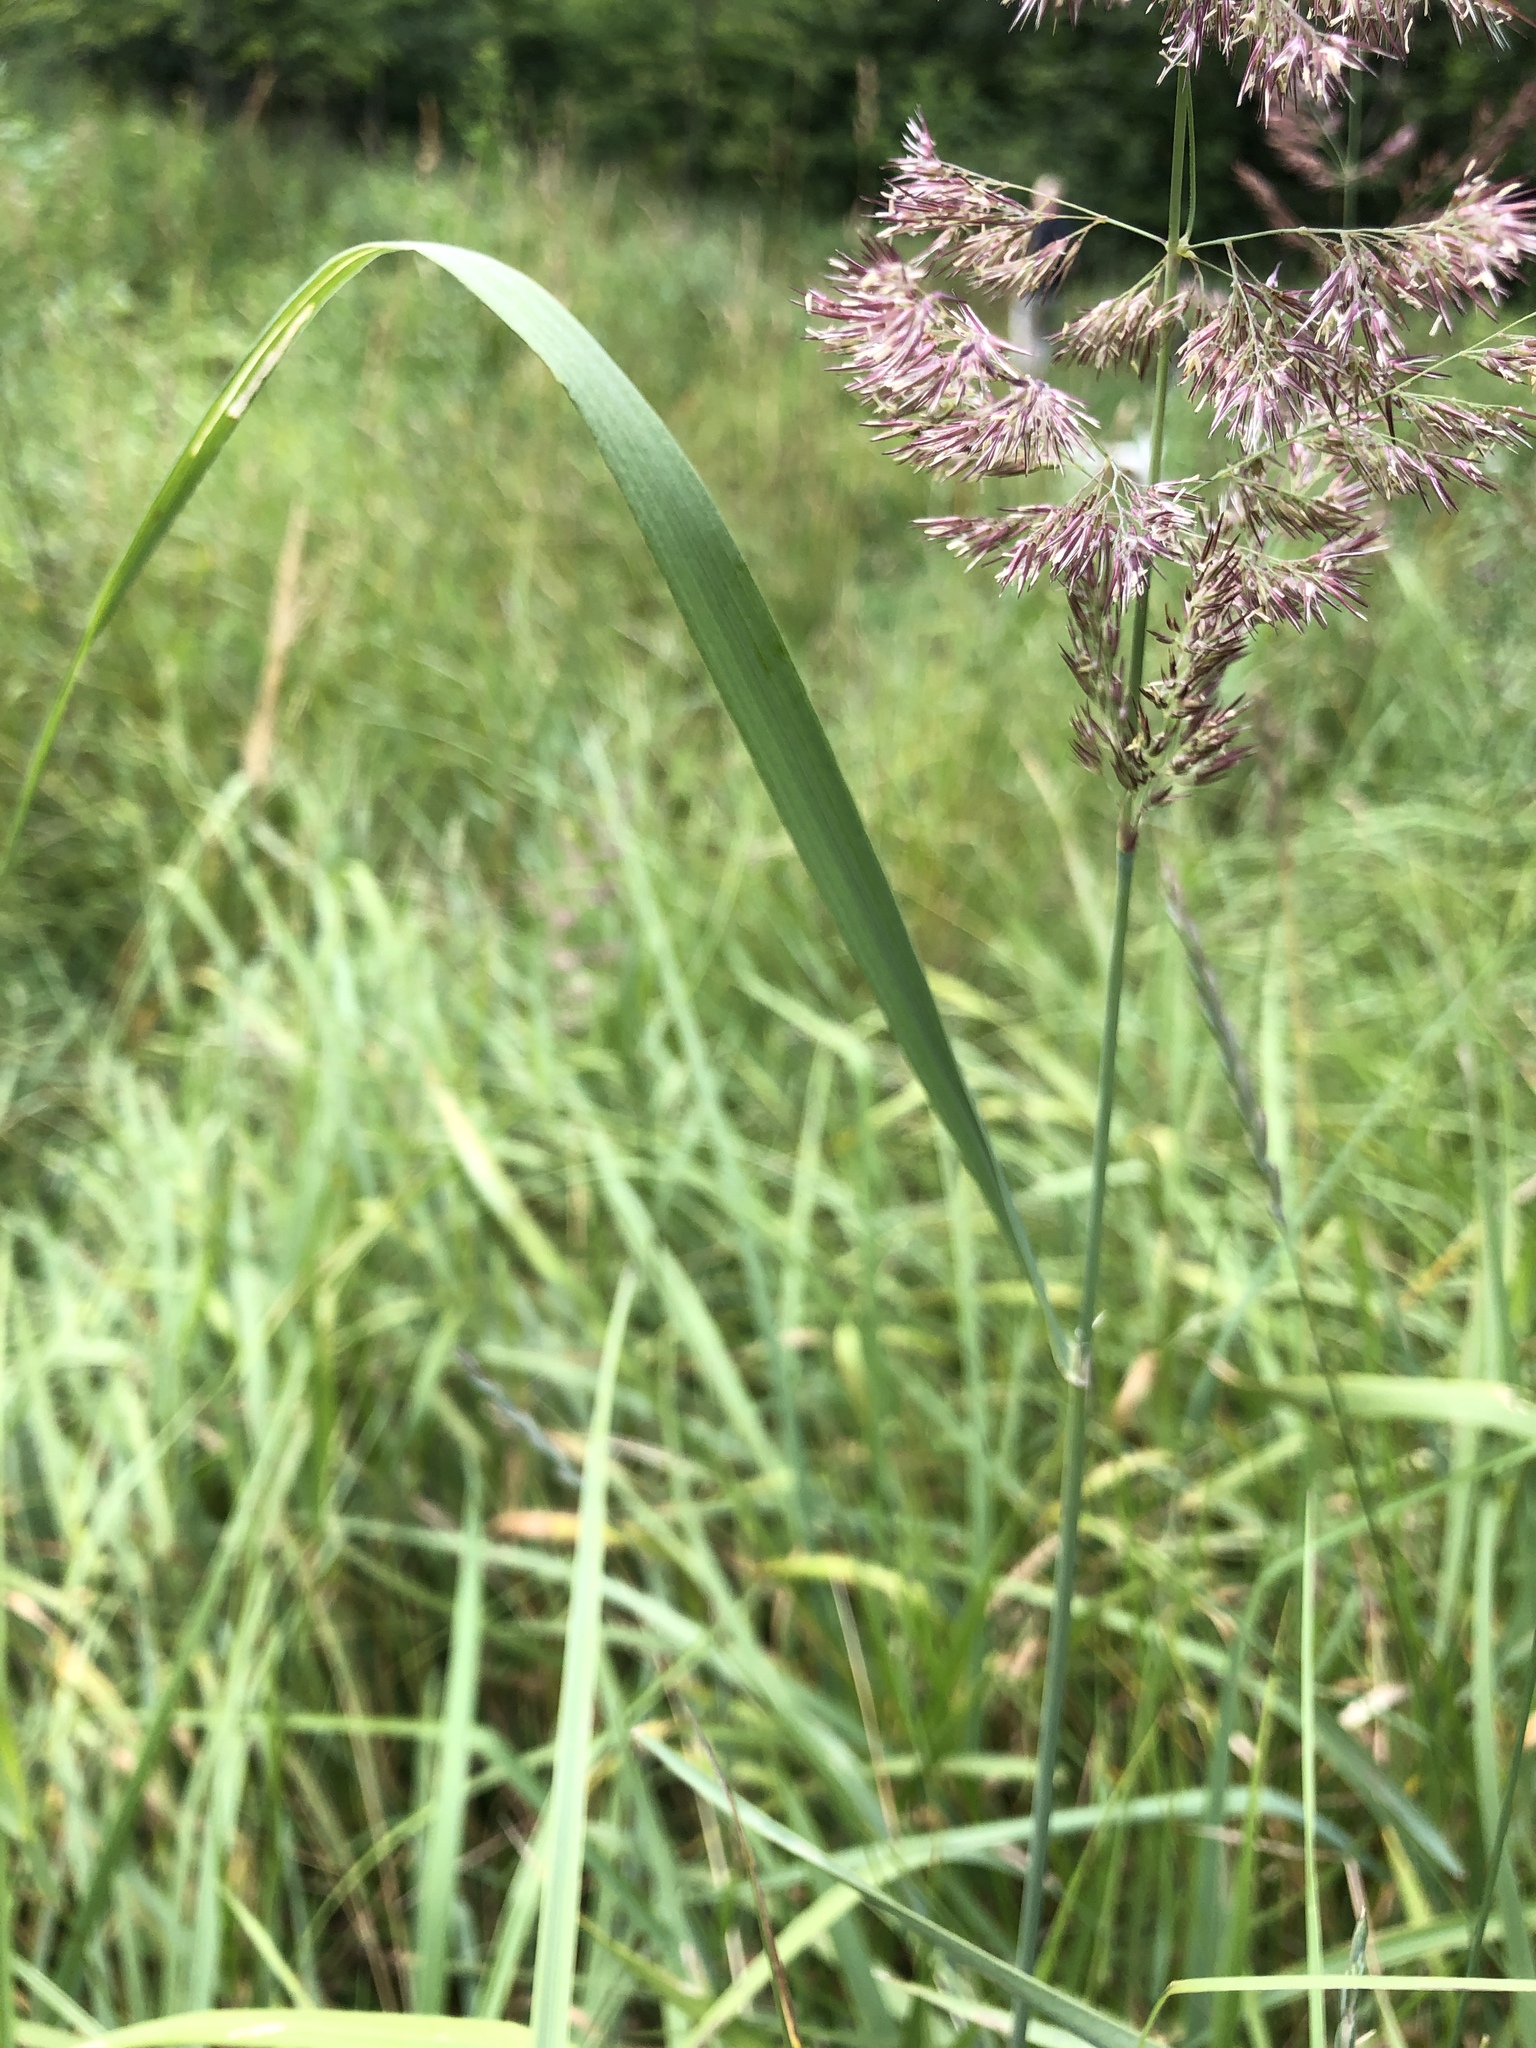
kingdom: Plantae
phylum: Tracheophyta
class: Liliopsida
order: Poales
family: Poaceae
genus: Calamagrostis
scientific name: Calamagrostis epigejos
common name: Wood small-reed
